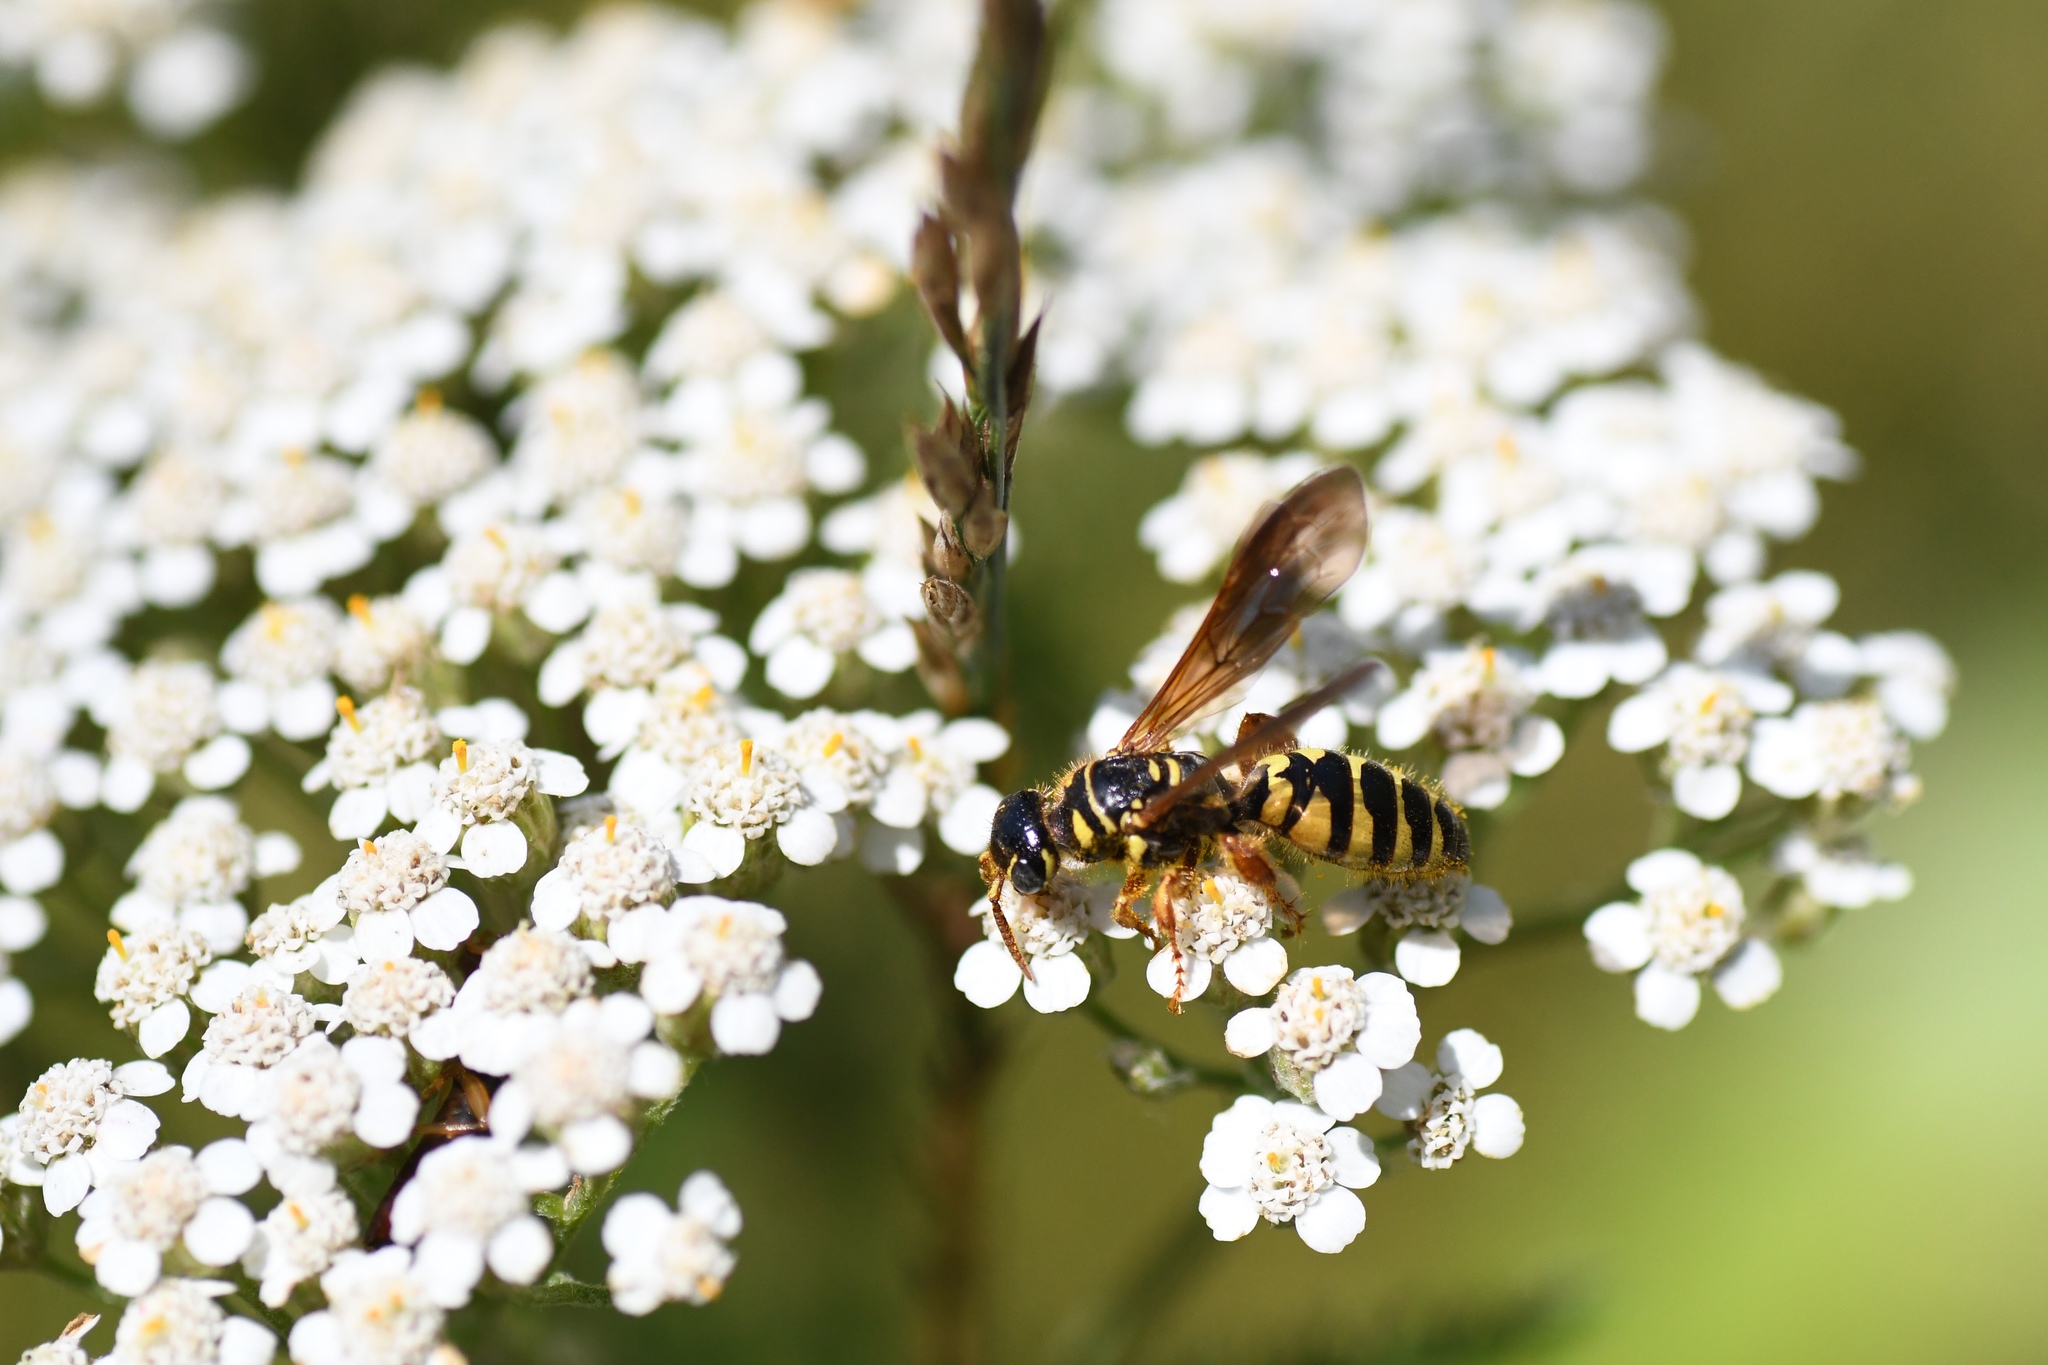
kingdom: Animalia
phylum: Arthropoda
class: Insecta
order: Hymenoptera
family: Tiphiidae
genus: Myzinum
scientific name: Myzinum quinquecinctum
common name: Five-banded thynnid wasp
